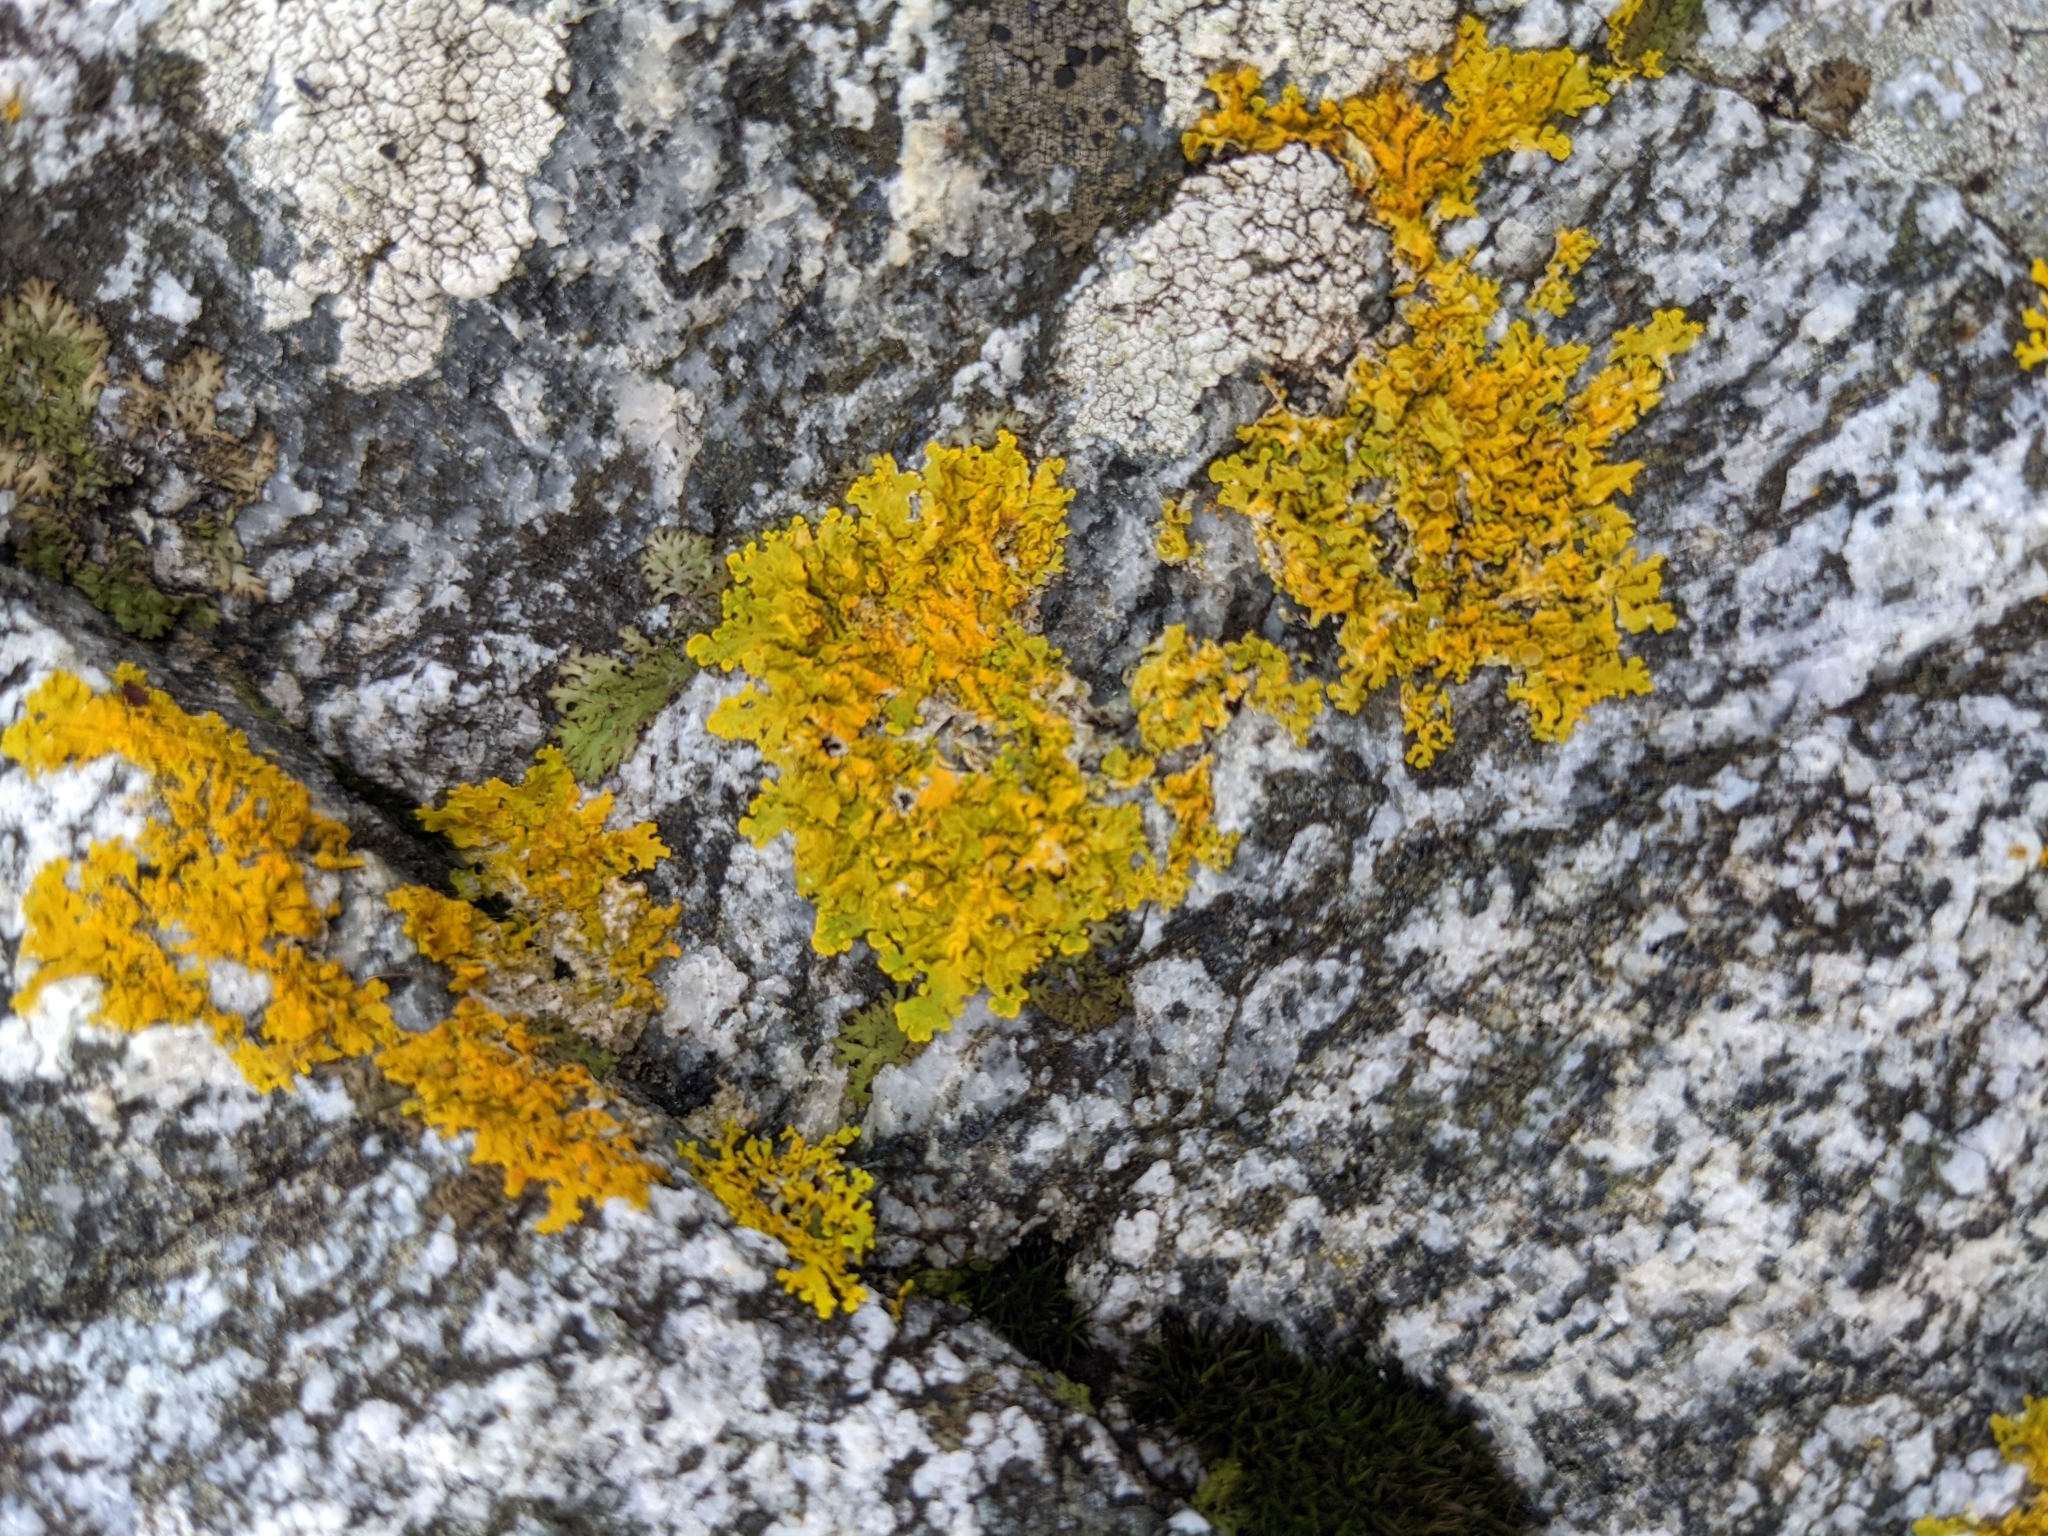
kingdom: Fungi
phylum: Ascomycota
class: Lecanoromycetes
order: Teloschistales
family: Teloschistaceae
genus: Xanthoria
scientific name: Xanthoria parietina
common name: Common orange lichen
